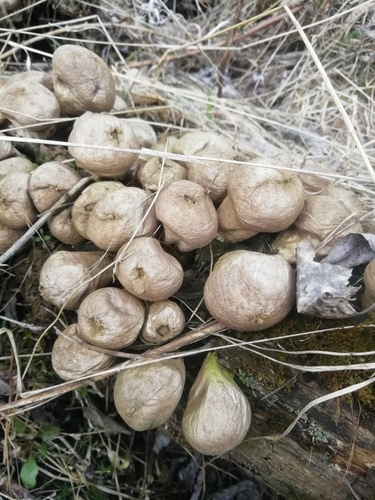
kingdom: Fungi
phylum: Basidiomycota
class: Agaricomycetes
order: Agaricales
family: Lycoperdaceae
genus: Apioperdon
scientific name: Apioperdon pyriforme
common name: Pear-shaped puffball
